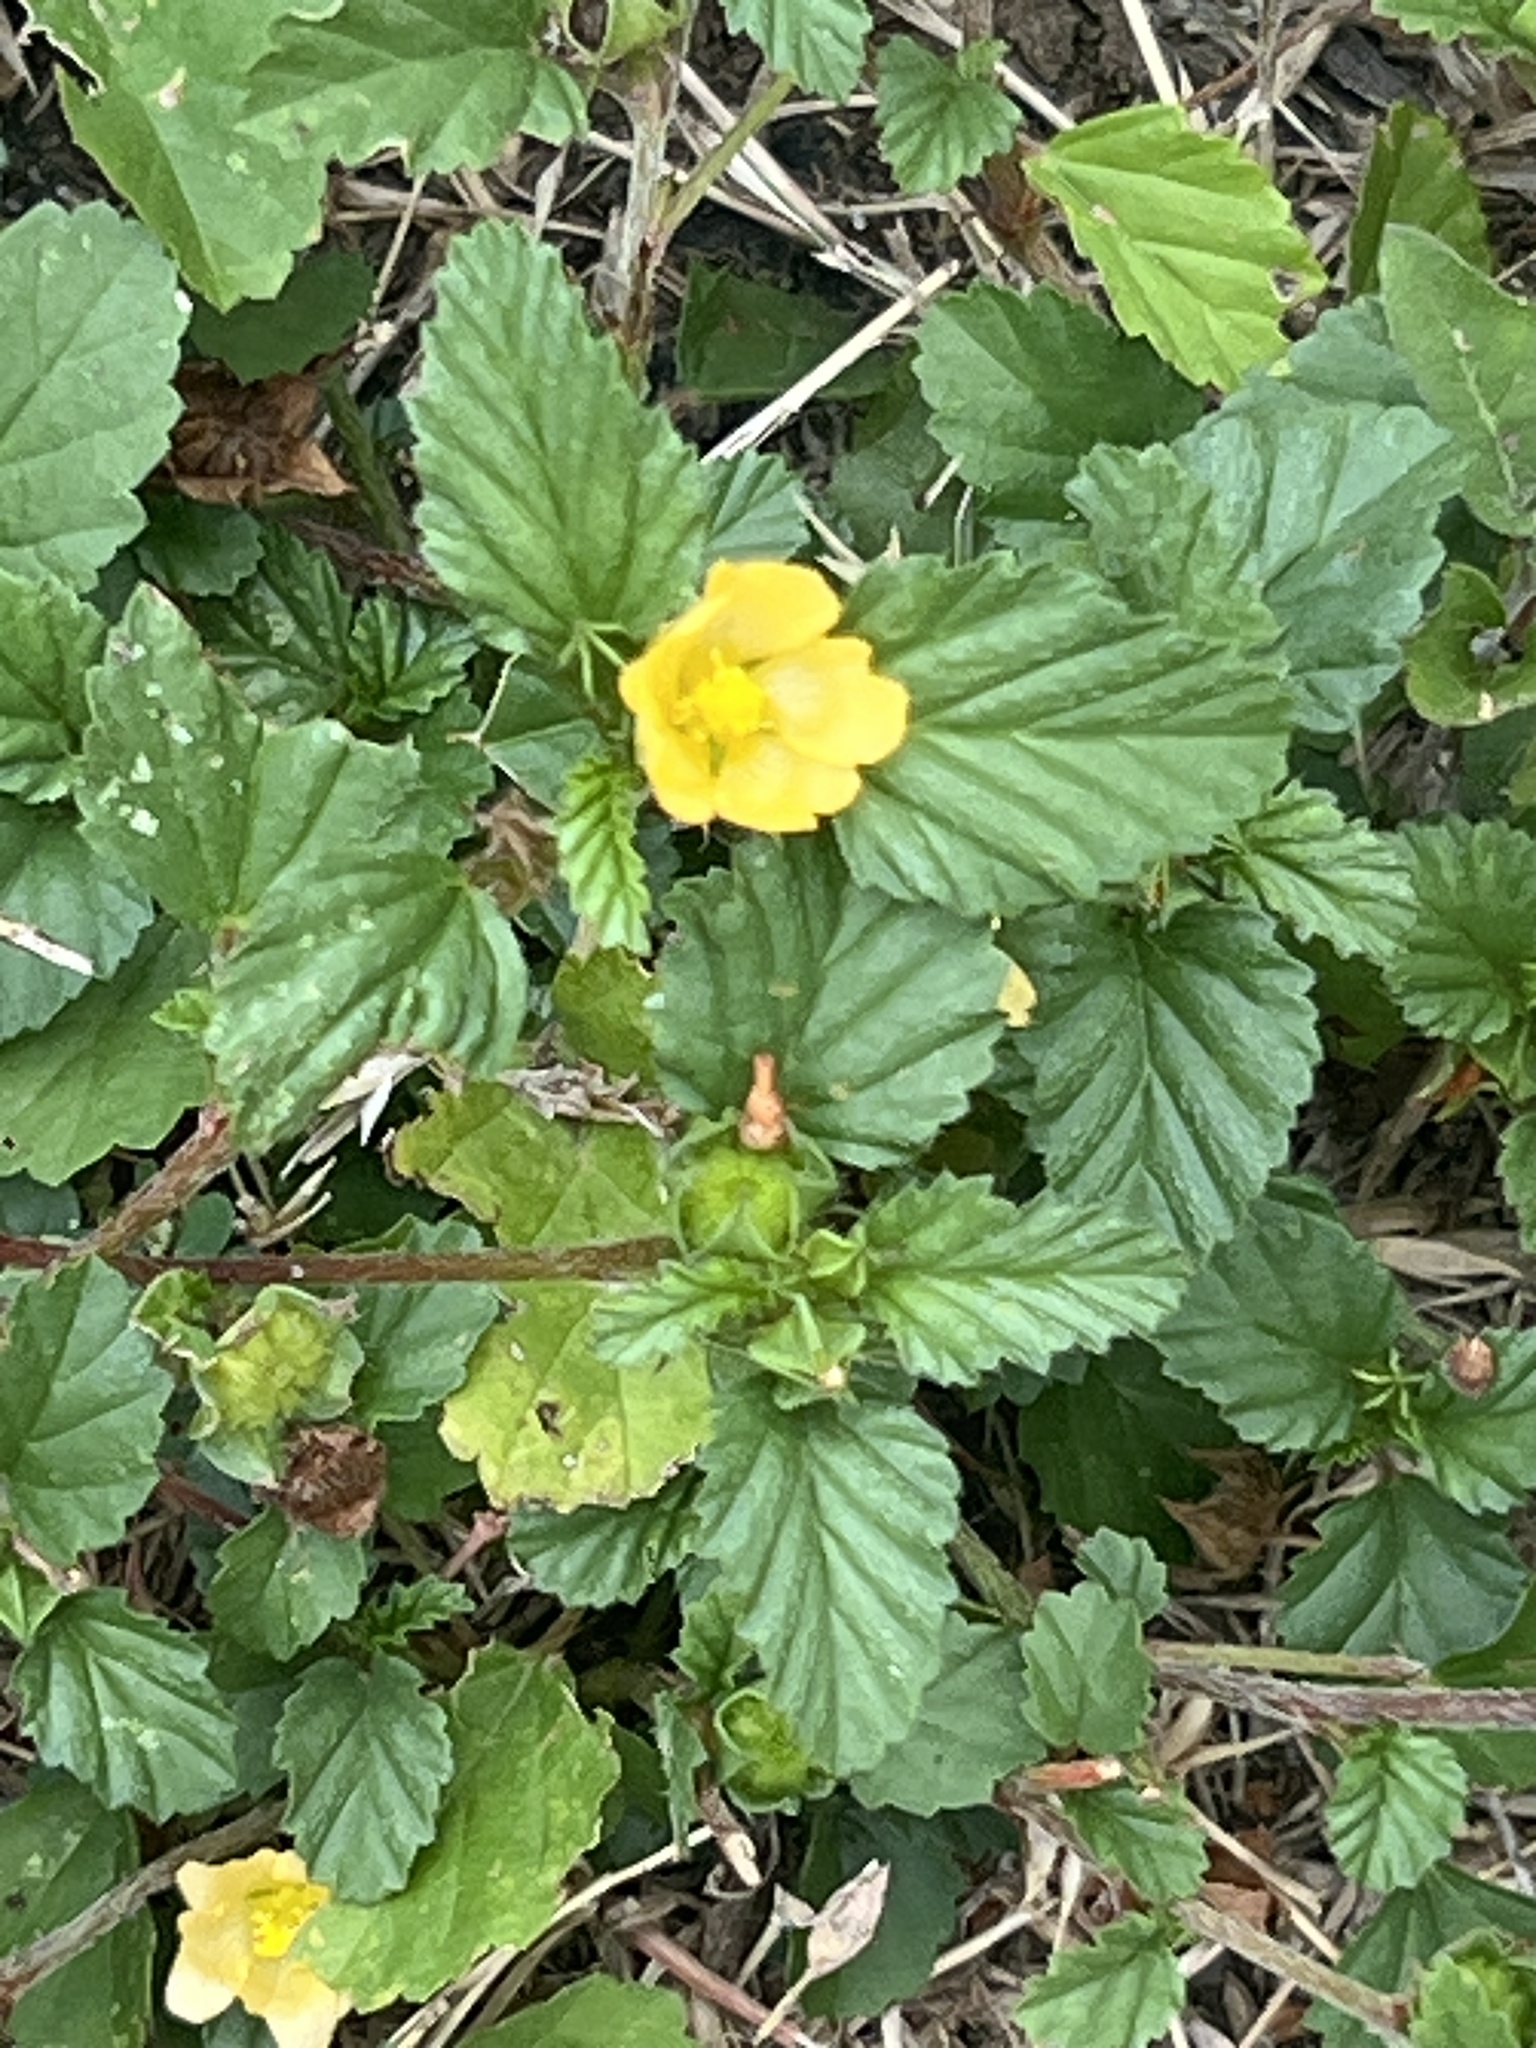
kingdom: Plantae
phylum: Tracheophyta
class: Magnoliopsida
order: Malvales
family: Malvaceae
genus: Malvastrum
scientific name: Malvastrum coromandelianum
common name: Threelobe false mallow
